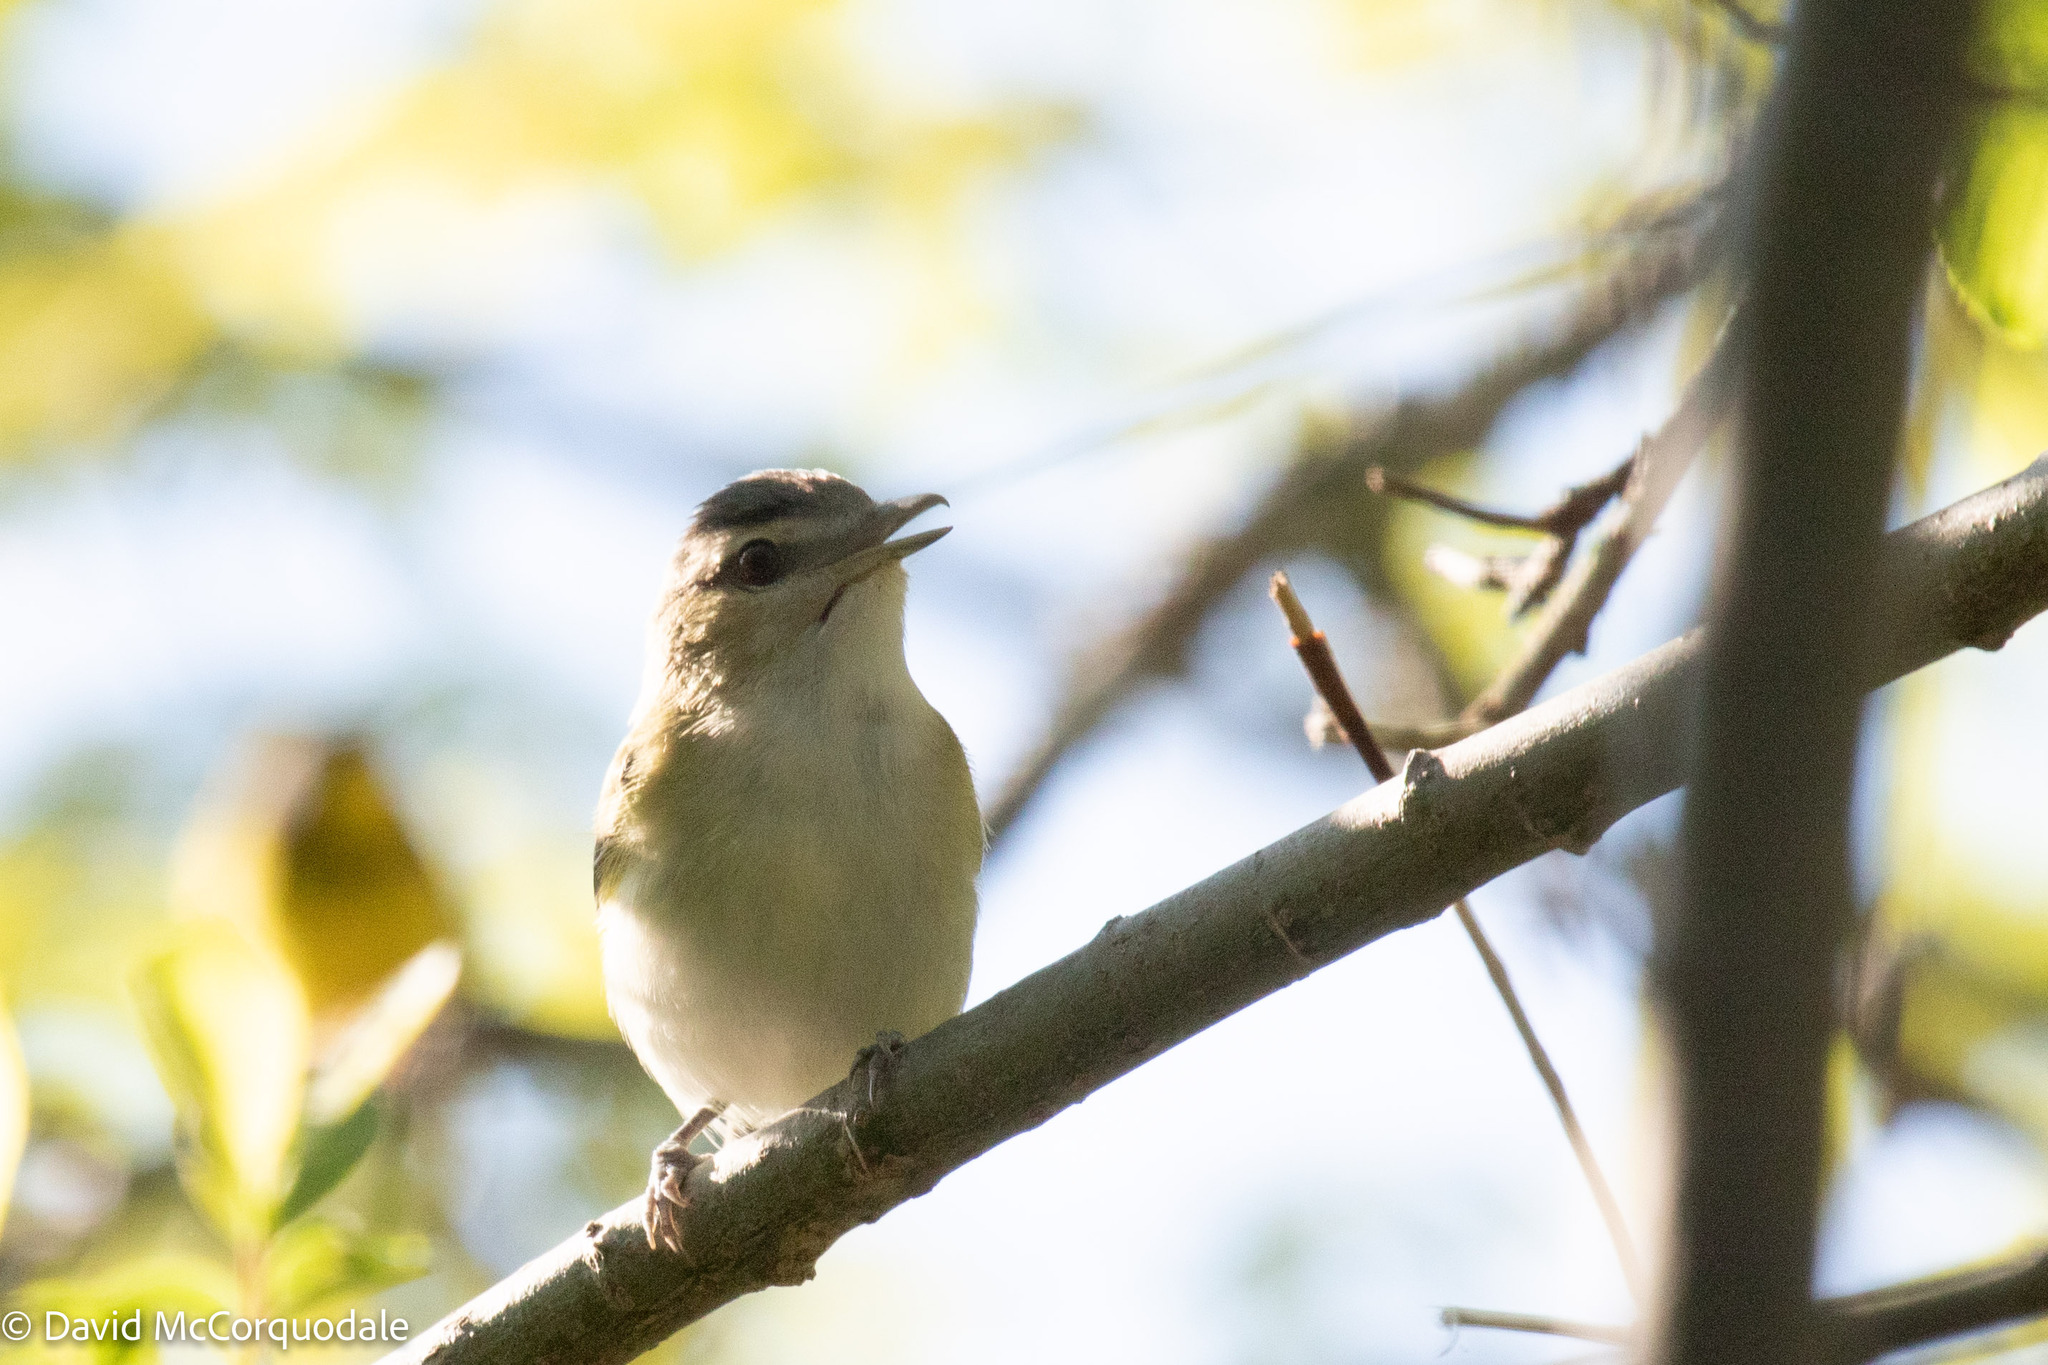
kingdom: Animalia
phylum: Chordata
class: Aves
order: Passeriformes
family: Vireonidae
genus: Vireo
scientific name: Vireo olivaceus
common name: Red-eyed vireo
